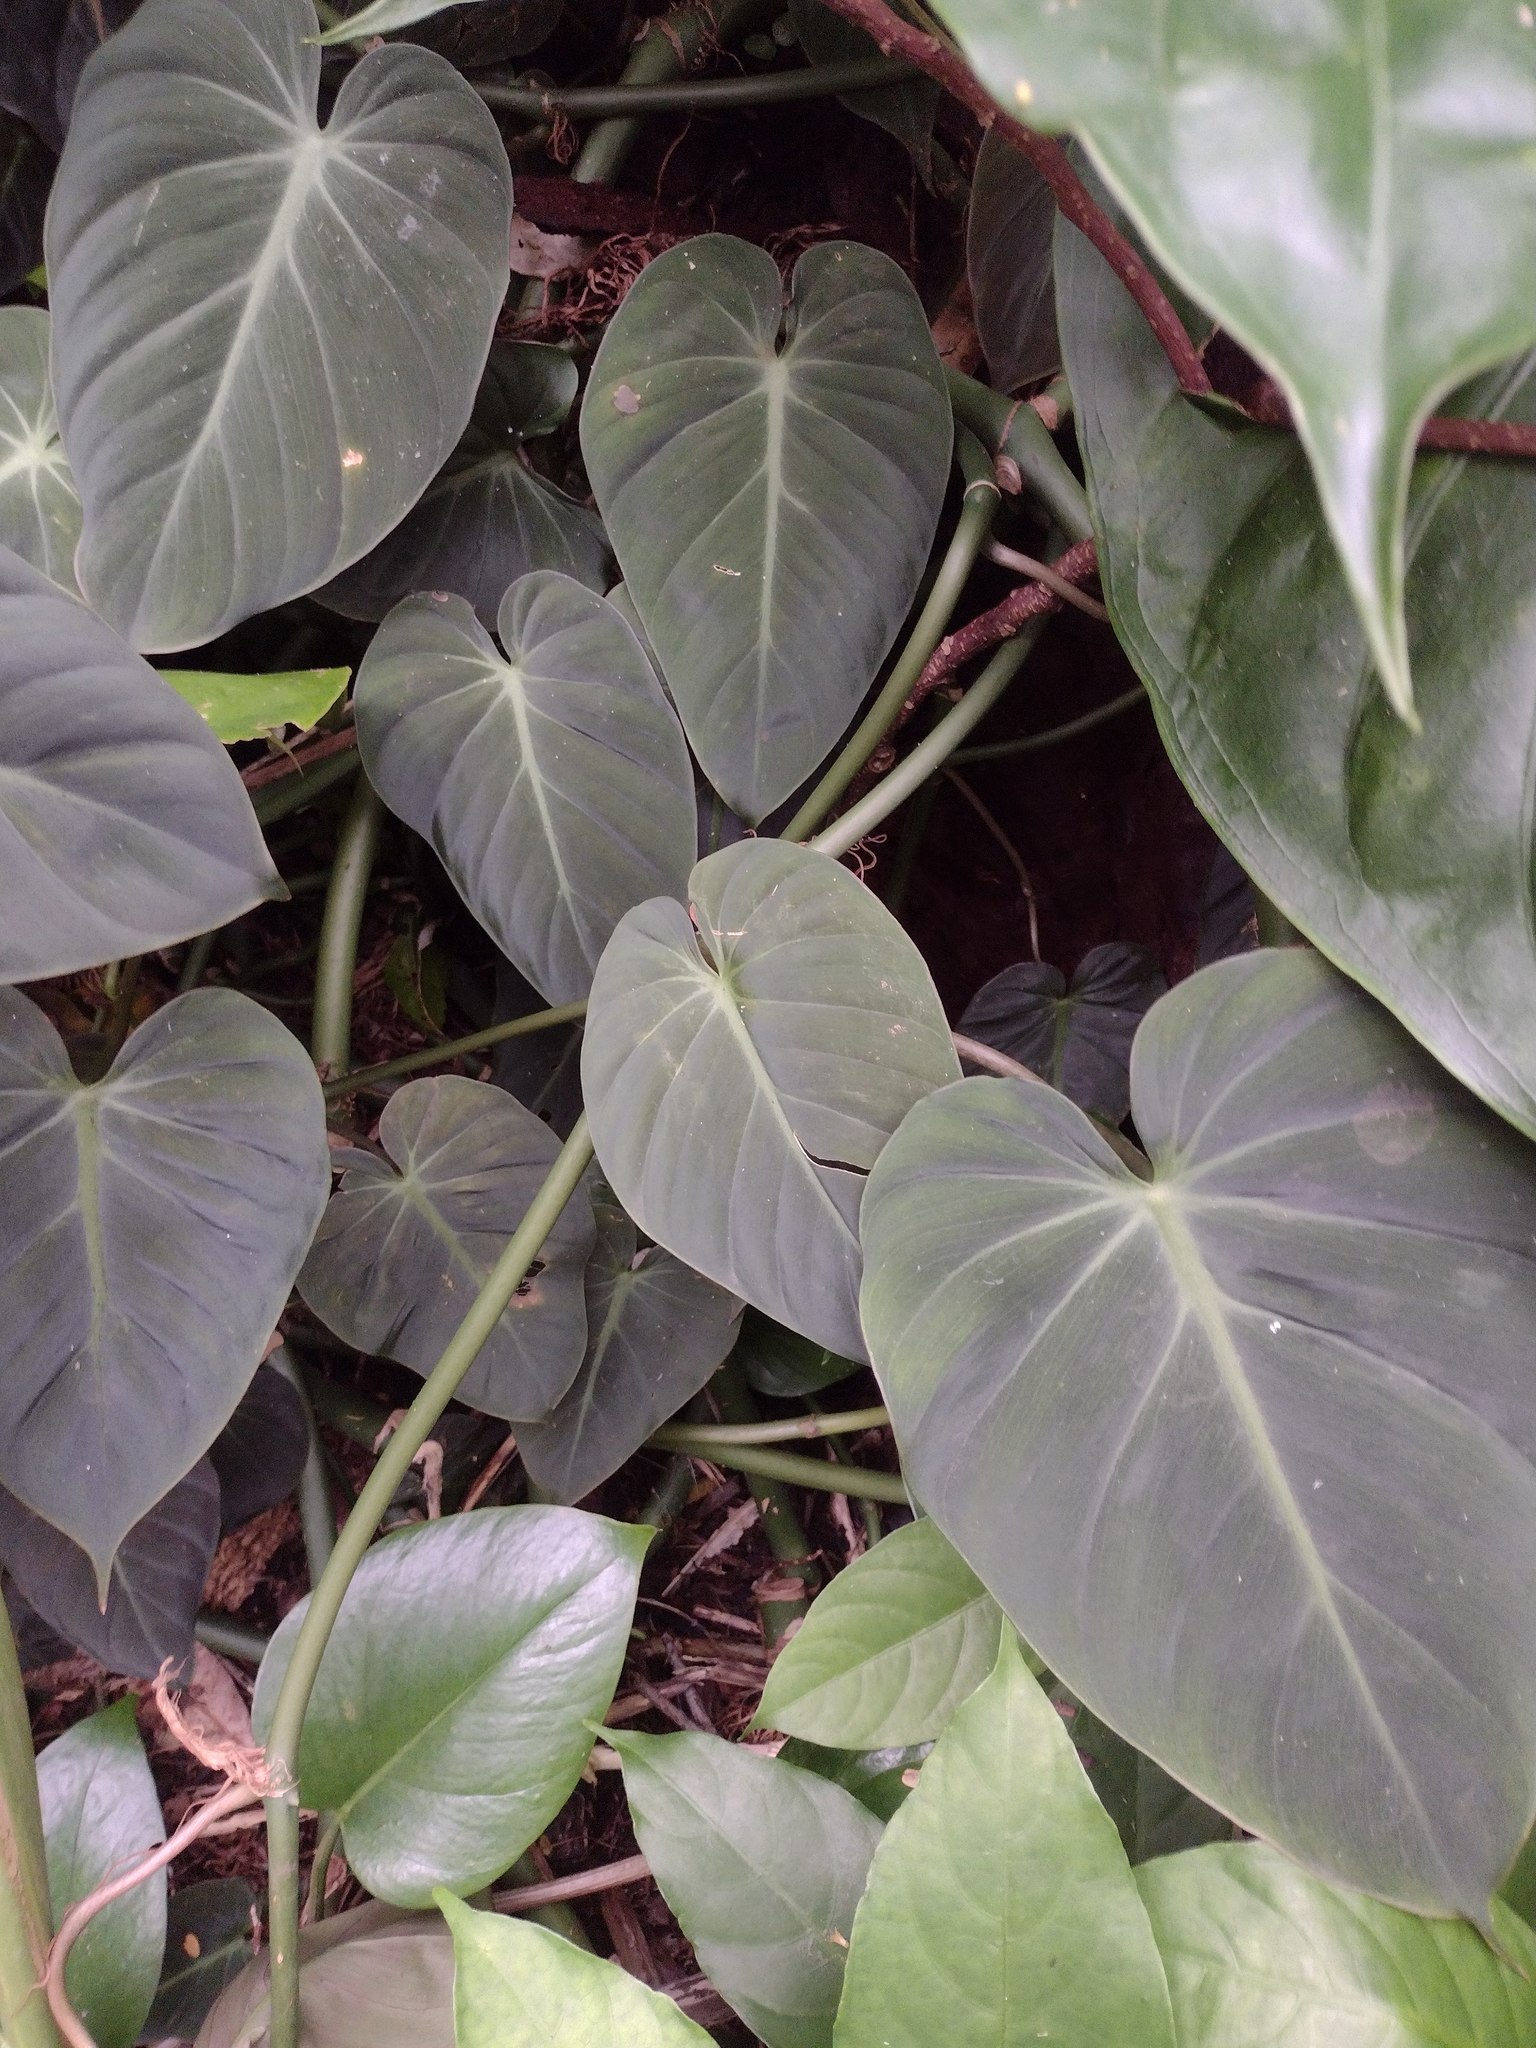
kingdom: Plantae
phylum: Tracheophyta
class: Liliopsida
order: Alismatales
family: Araceae
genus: Philodendron
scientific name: Philodendron hederaceum
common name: Vilevine
